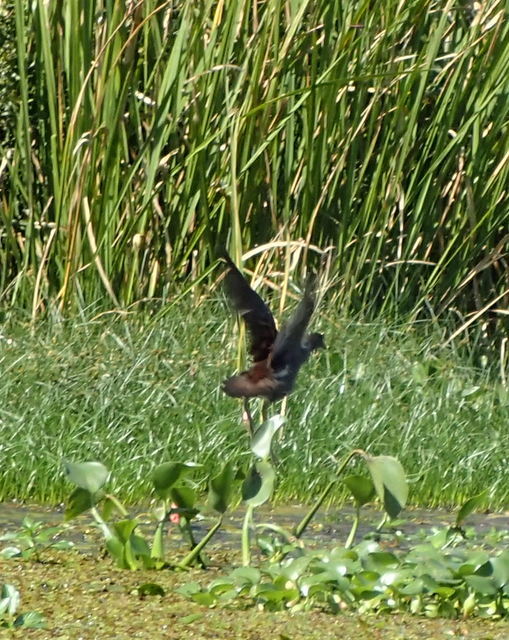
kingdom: Animalia
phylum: Chordata
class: Aves
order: Gruiformes
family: Rallidae
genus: Gallinula
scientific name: Gallinula chloropus
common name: Common moorhen
